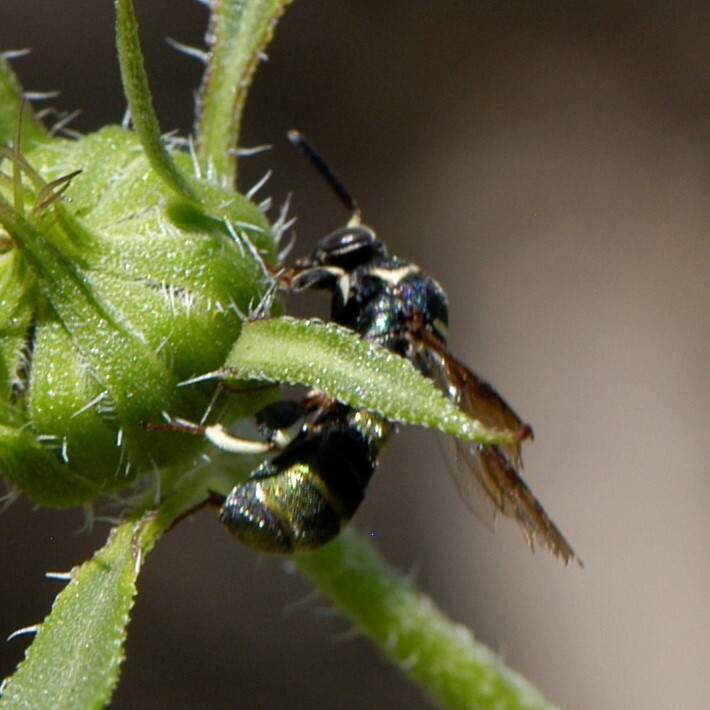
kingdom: Animalia
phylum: Arthropoda
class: Insecta
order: Hymenoptera
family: Leucospidae
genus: Leucospis
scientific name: Leucospis birkmani
